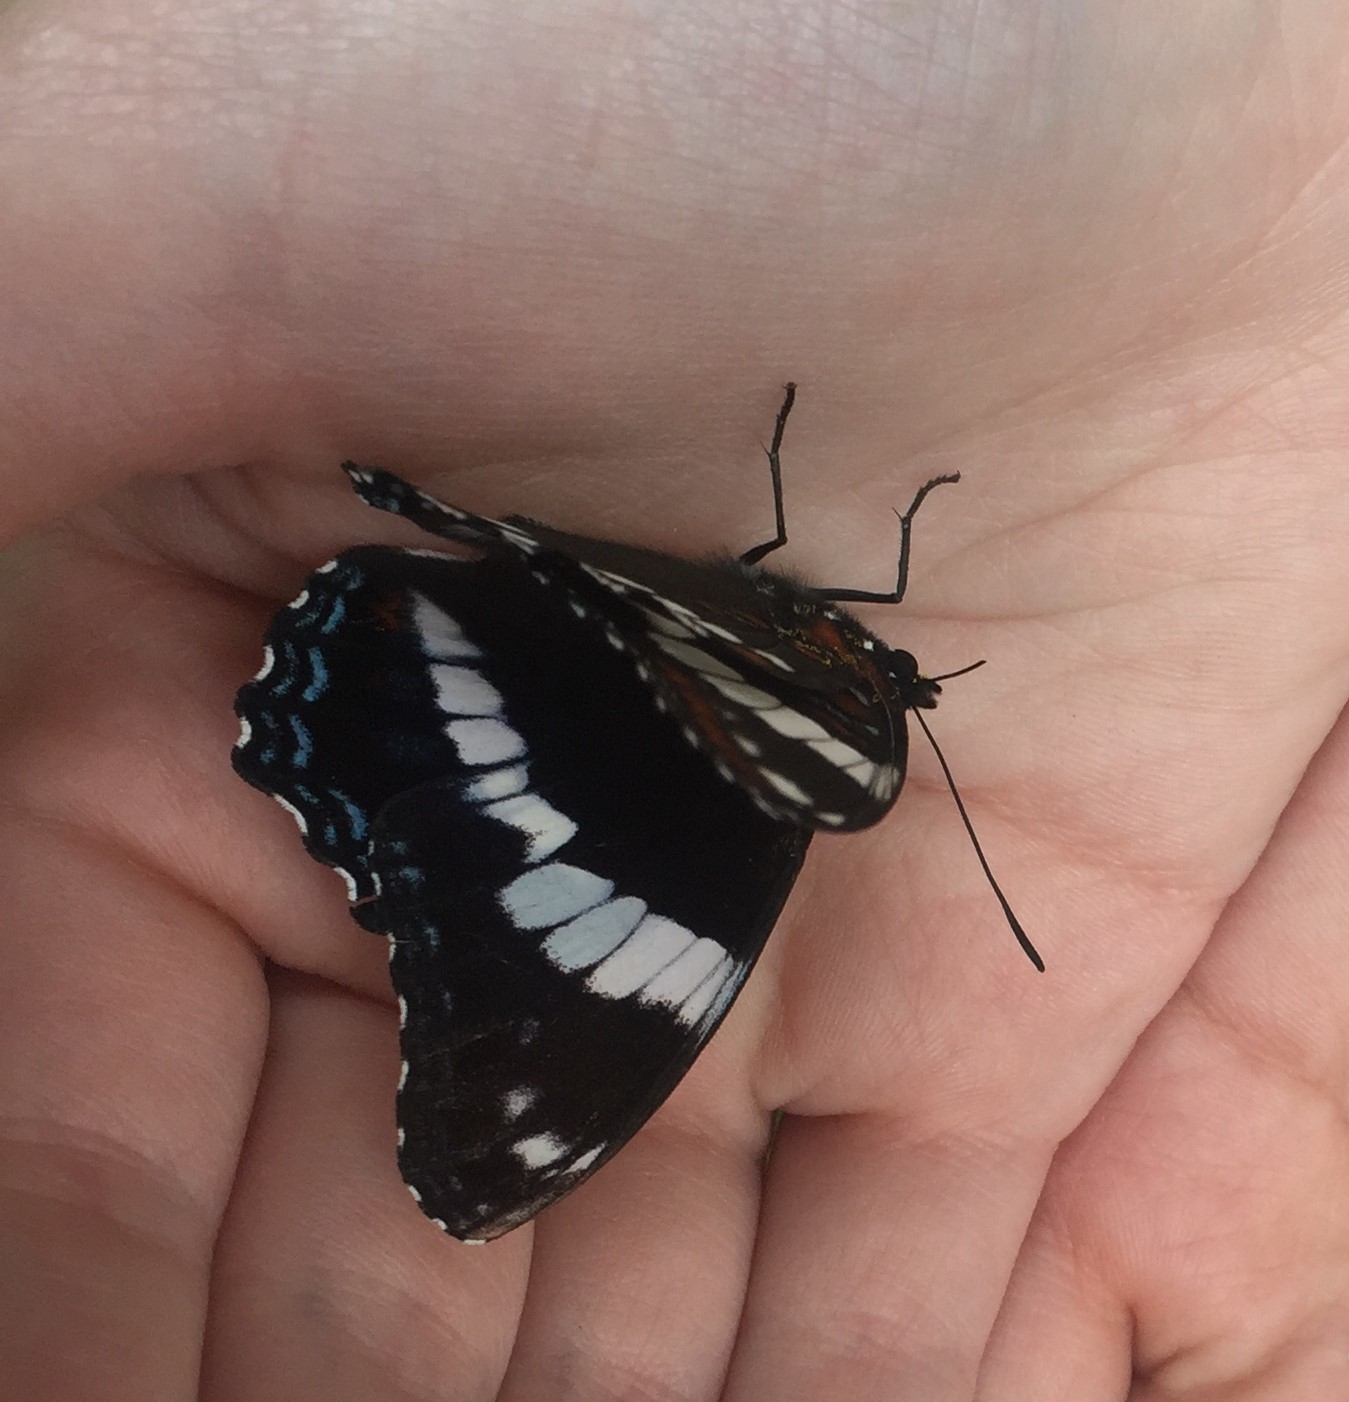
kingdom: Animalia
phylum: Arthropoda
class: Insecta
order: Lepidoptera
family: Nymphalidae
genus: Limenitis
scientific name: Limenitis arthemis
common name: Red-spotted admiral
